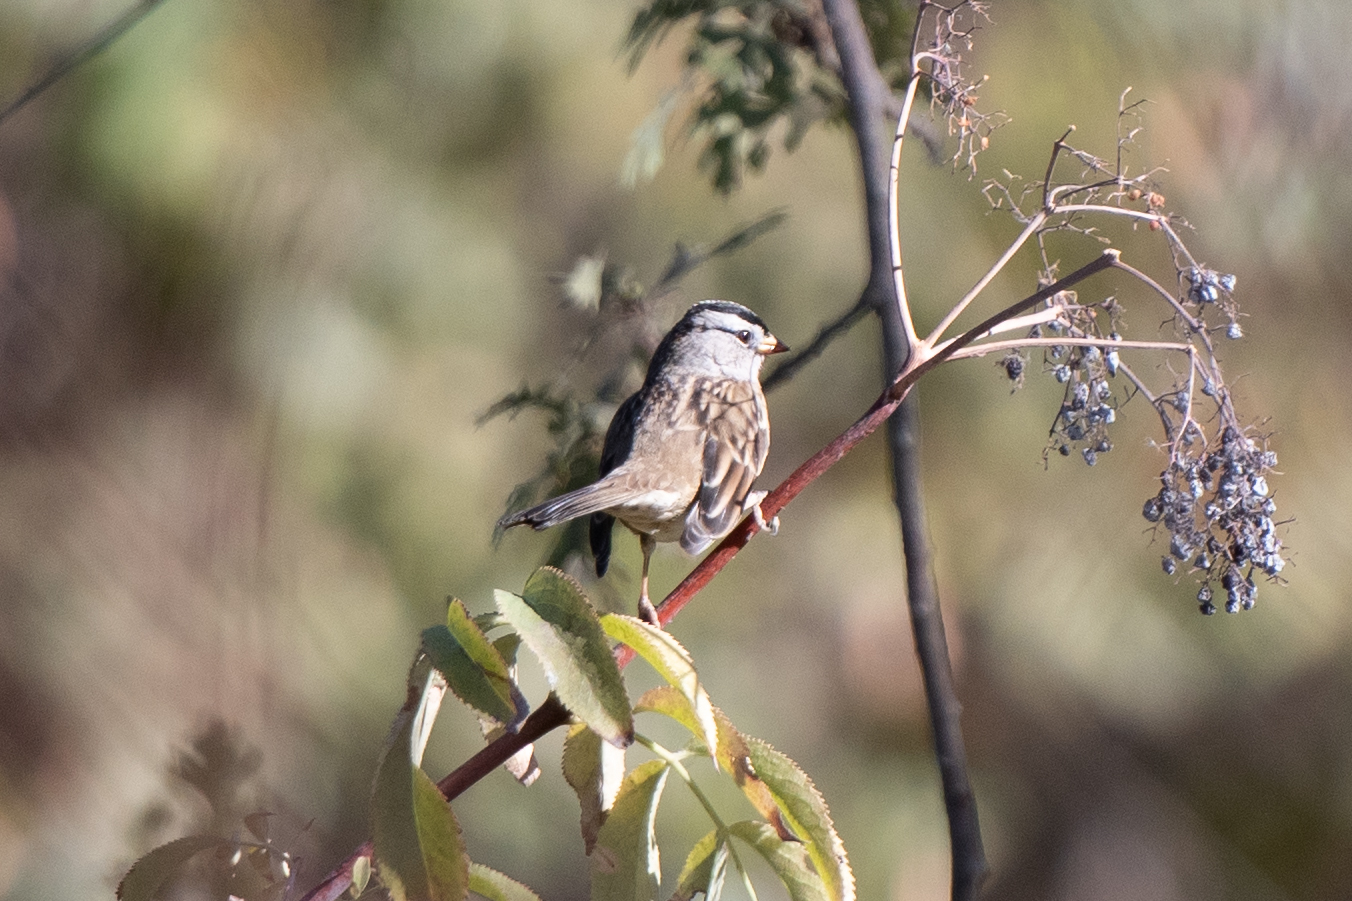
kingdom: Animalia
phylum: Chordata
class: Aves
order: Passeriformes
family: Passerellidae
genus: Zonotrichia
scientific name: Zonotrichia leucophrys
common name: White-crowned sparrow
